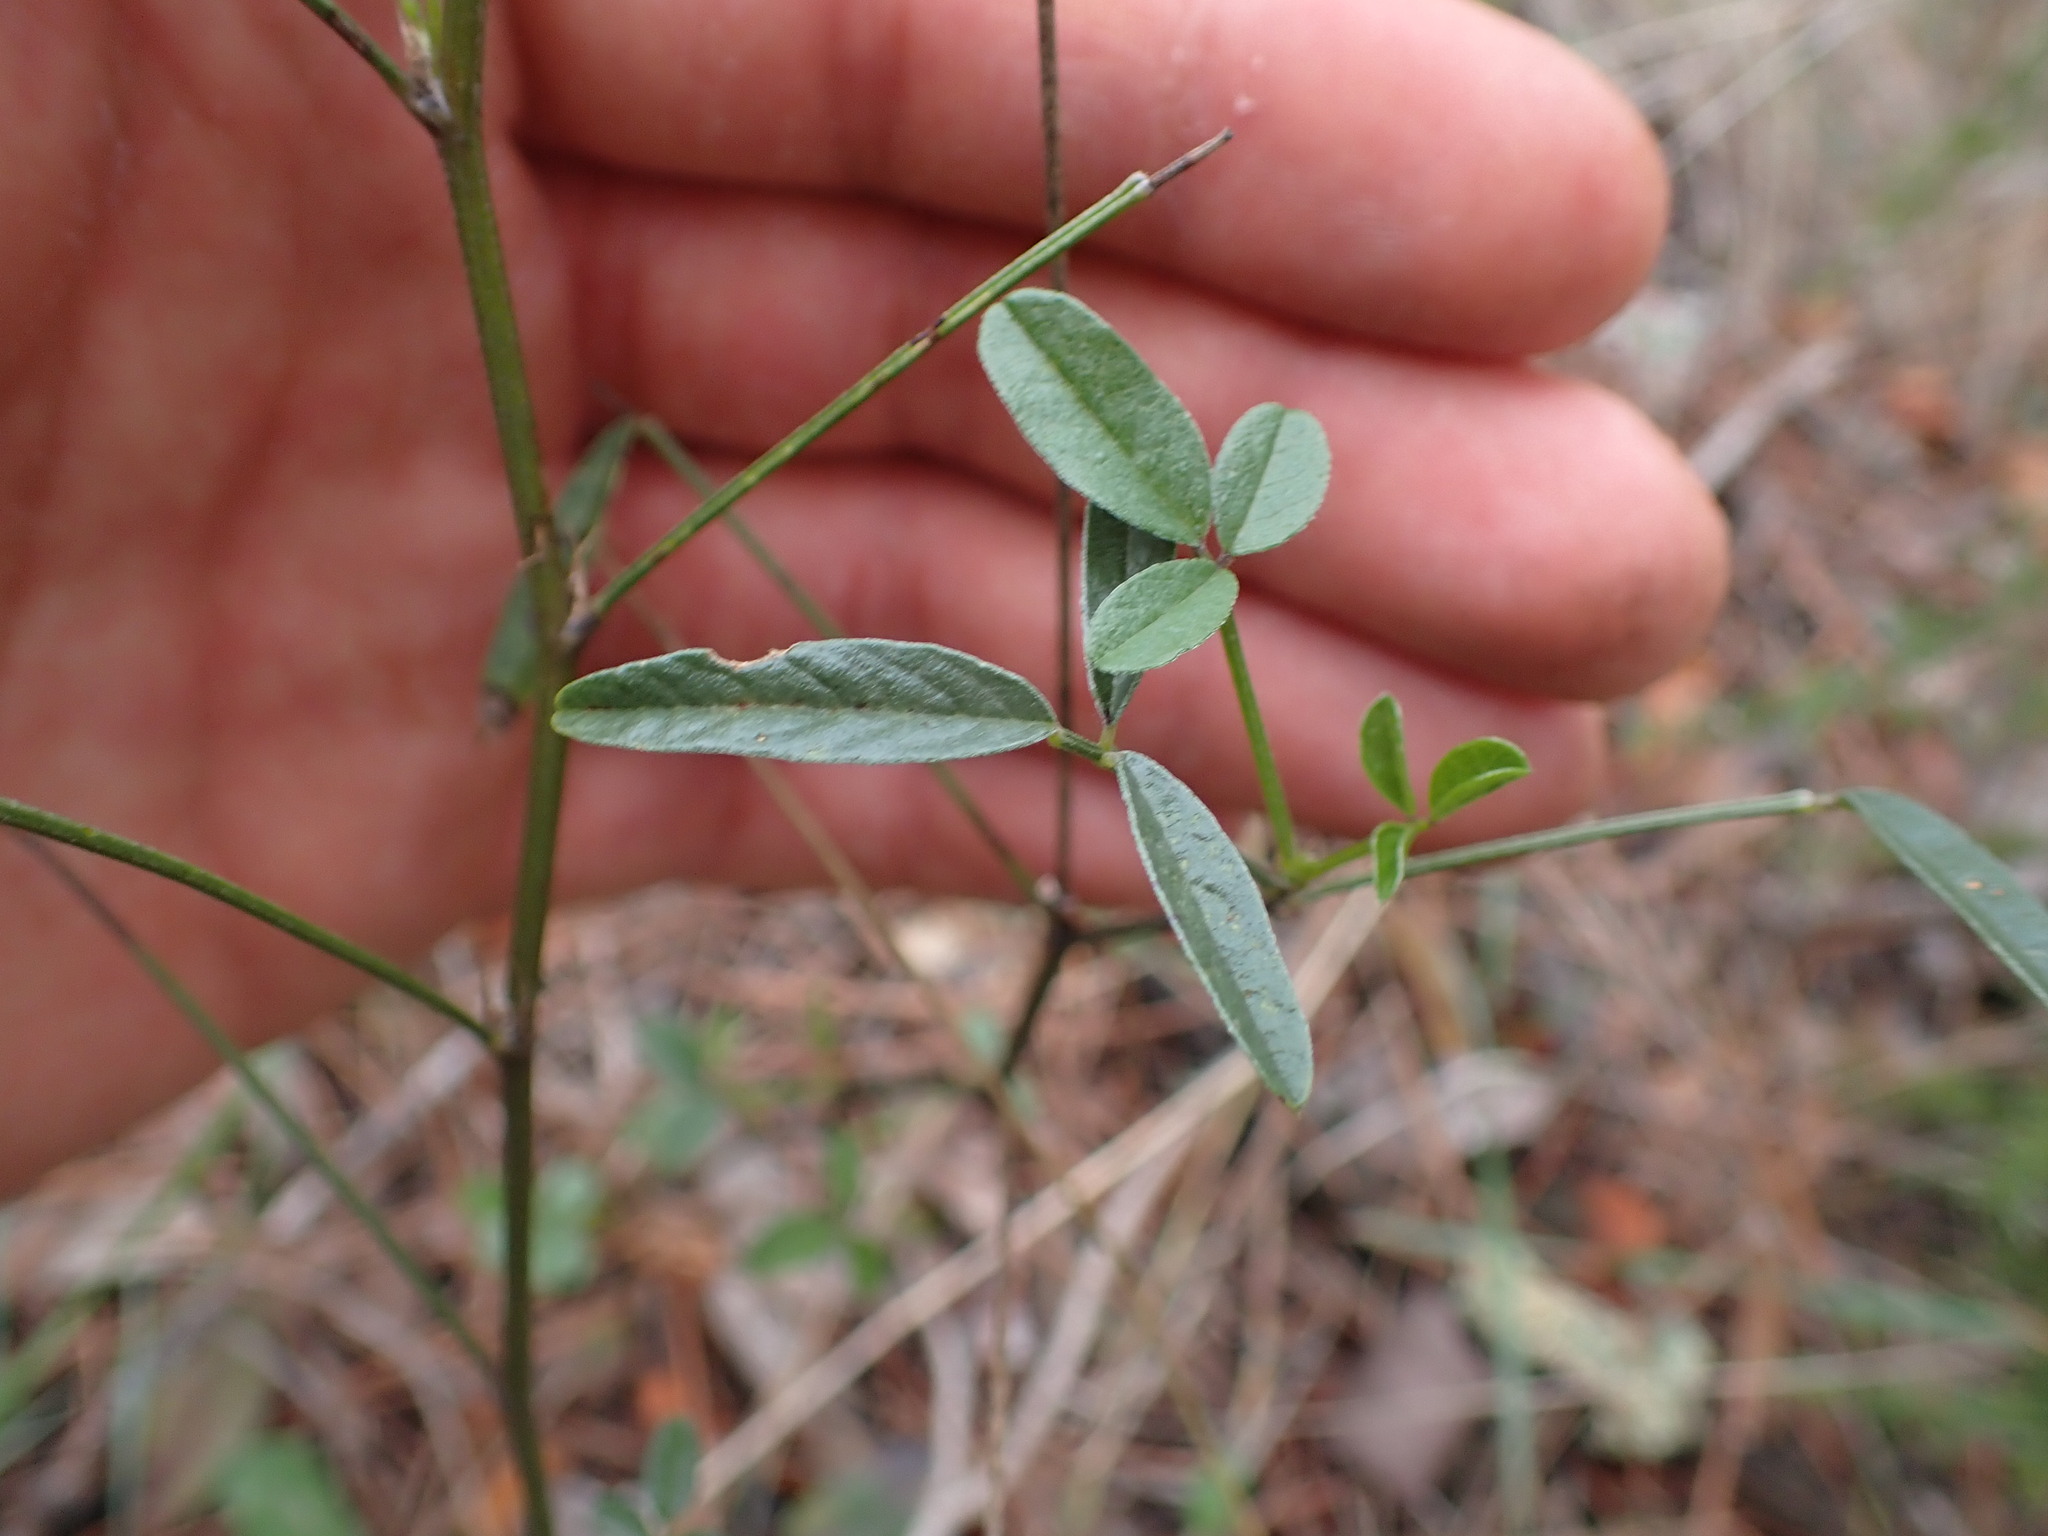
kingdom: Plantae
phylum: Tracheophyta
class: Magnoliopsida
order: Fabales
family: Fabaceae
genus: Bituminaria
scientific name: Bituminaria bituminosa
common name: Arabian pea
